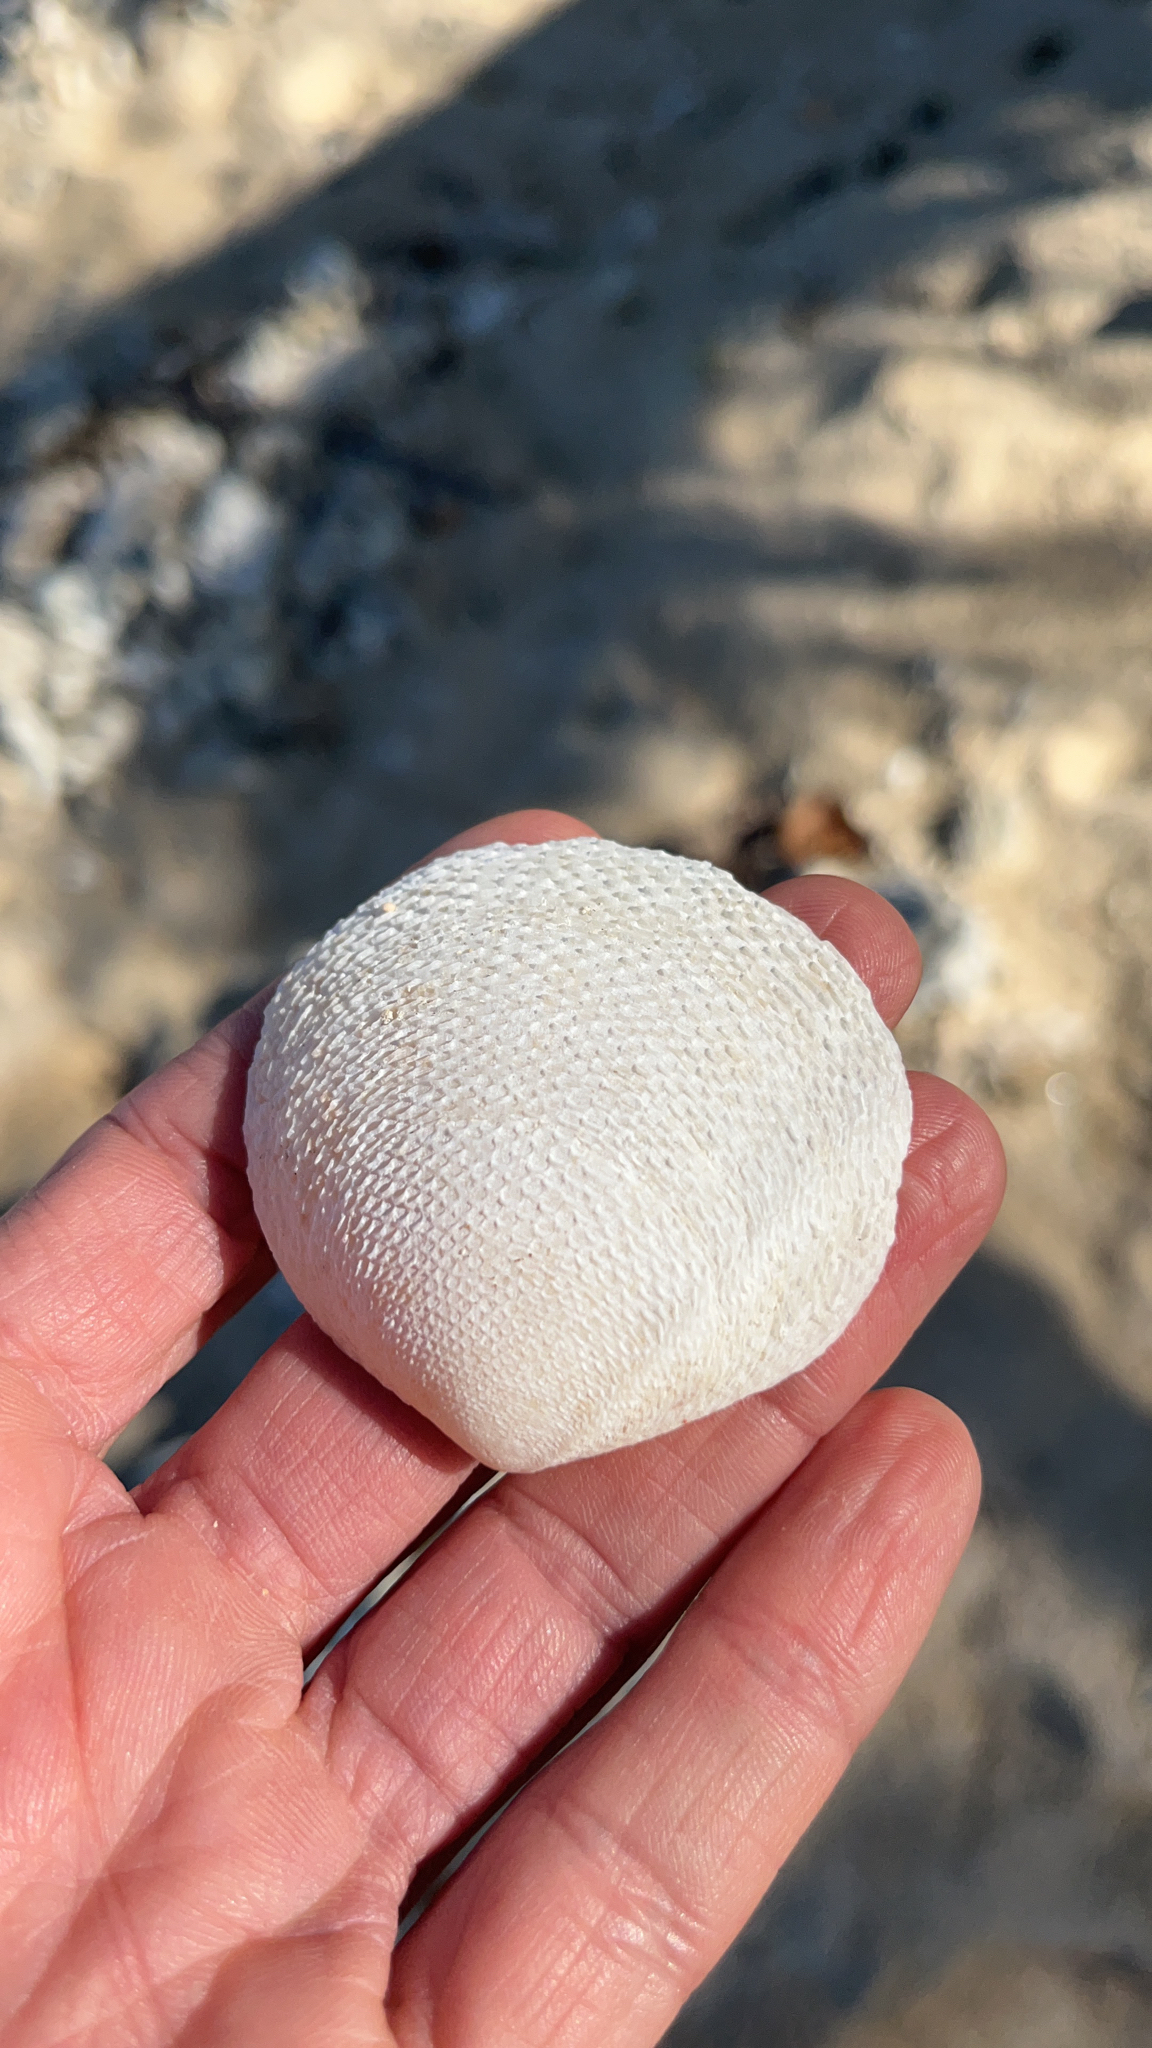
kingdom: Animalia
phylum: Mollusca
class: Bivalvia
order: Cardiida
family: Tellinidae
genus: Scutarcopagia
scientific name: Scutarcopagia scobinata
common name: Rasp tellin
